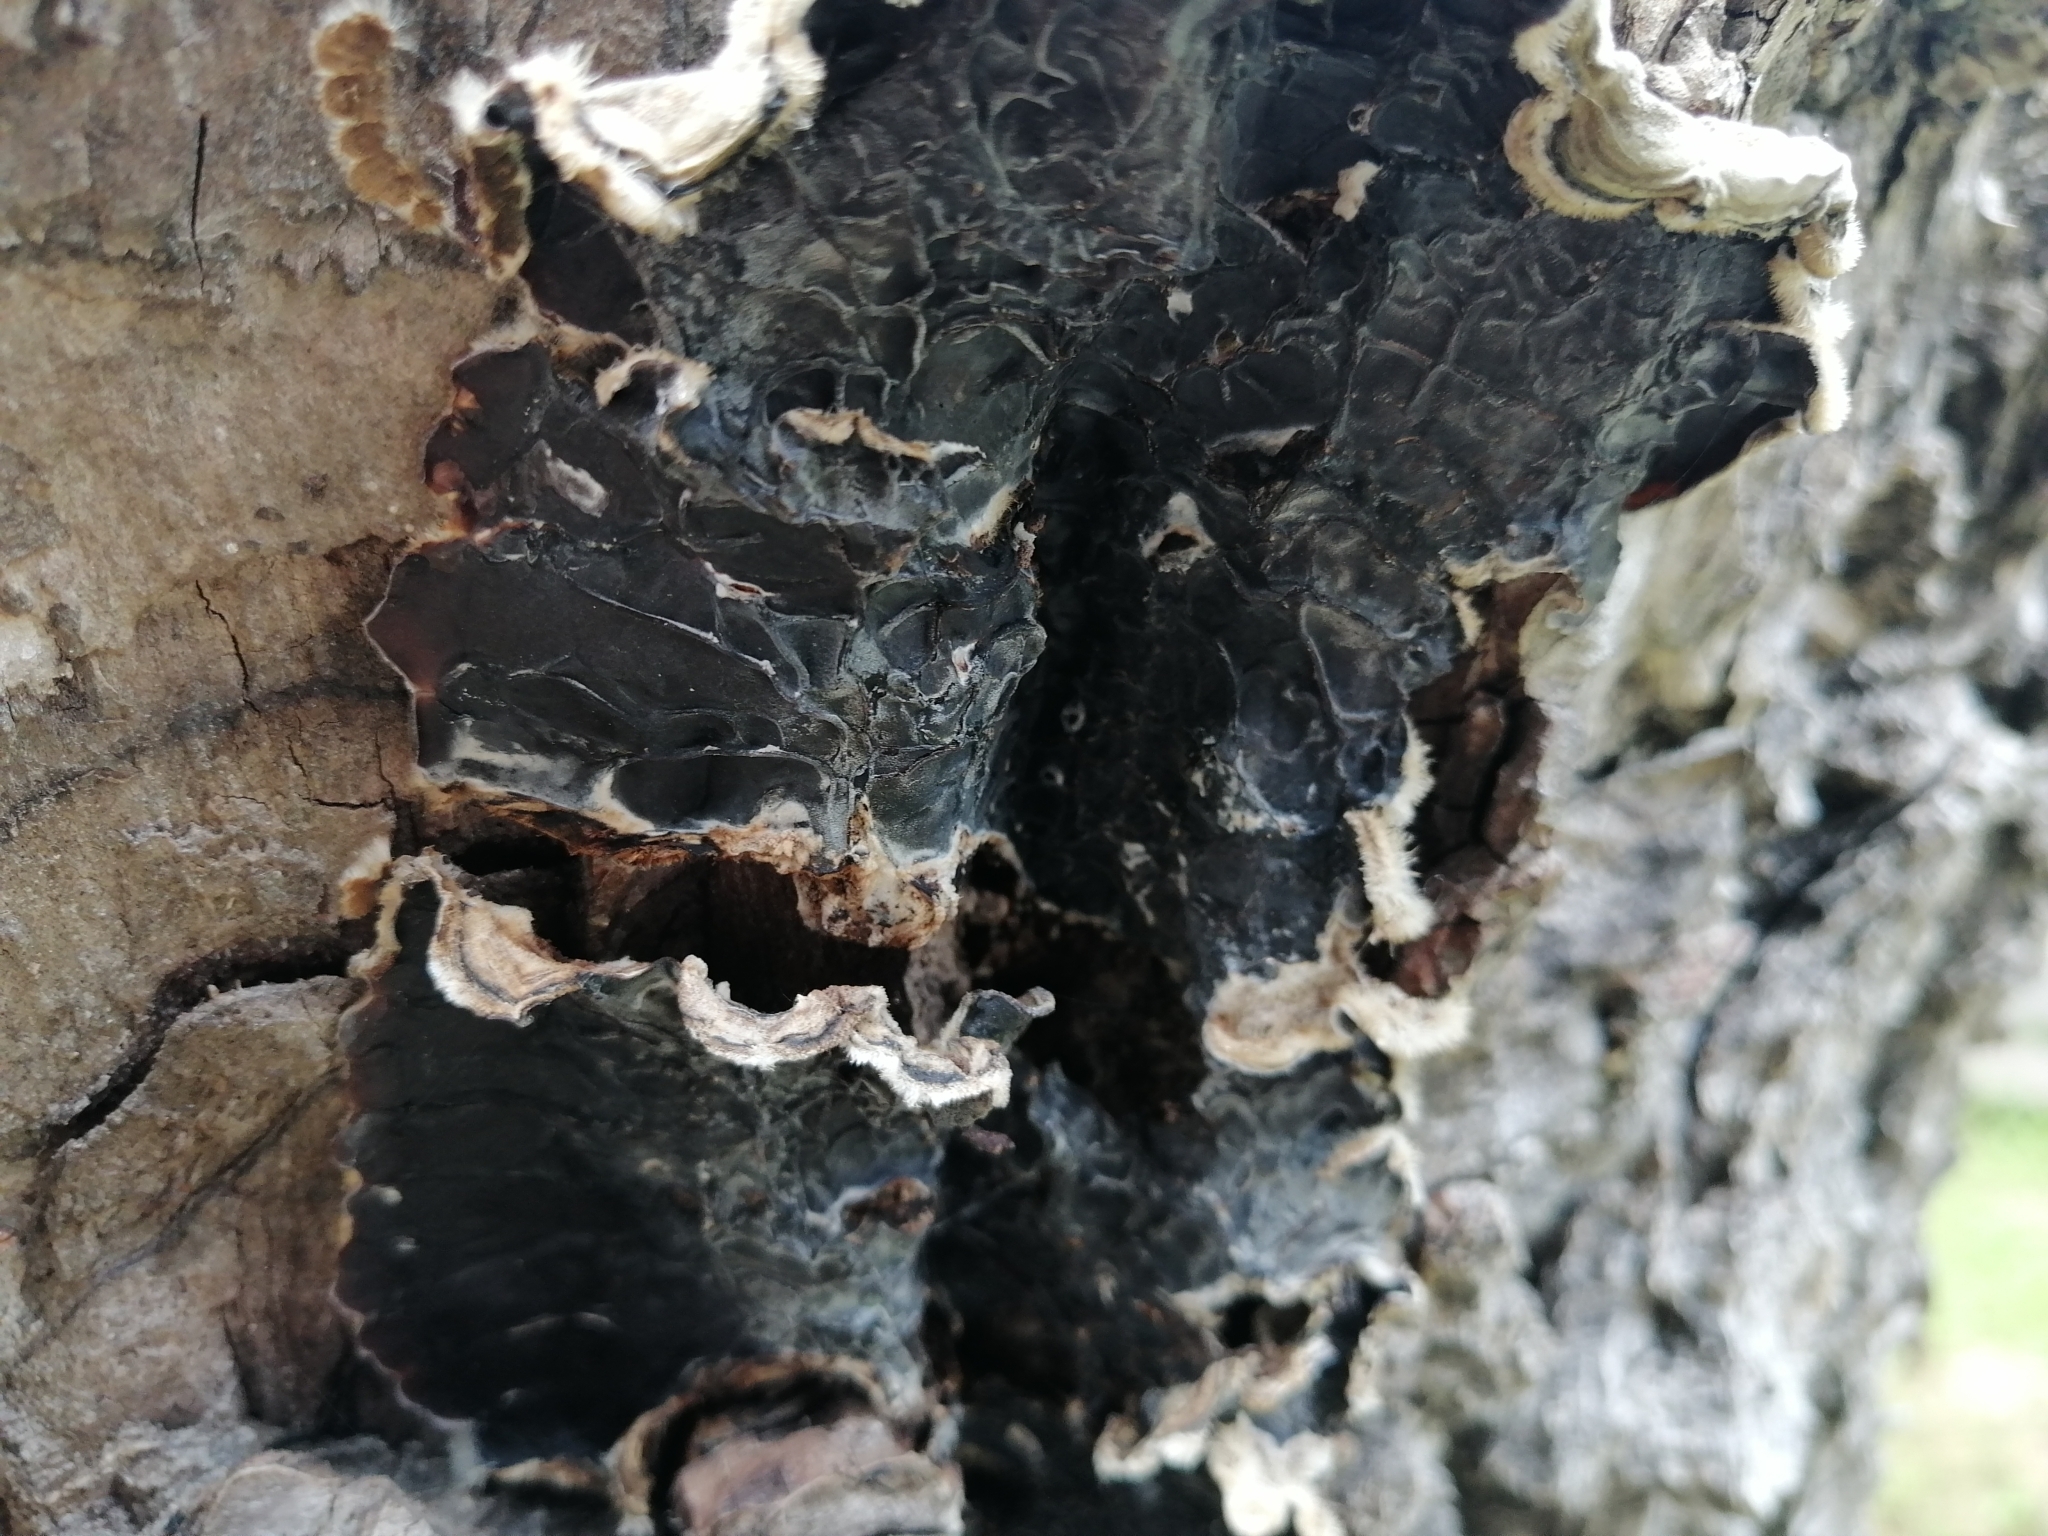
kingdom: Fungi
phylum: Basidiomycota
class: Agaricomycetes
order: Auriculariales
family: Auriculariaceae
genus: Auricularia
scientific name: Auricularia mesenterica
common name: Tripe fungus
